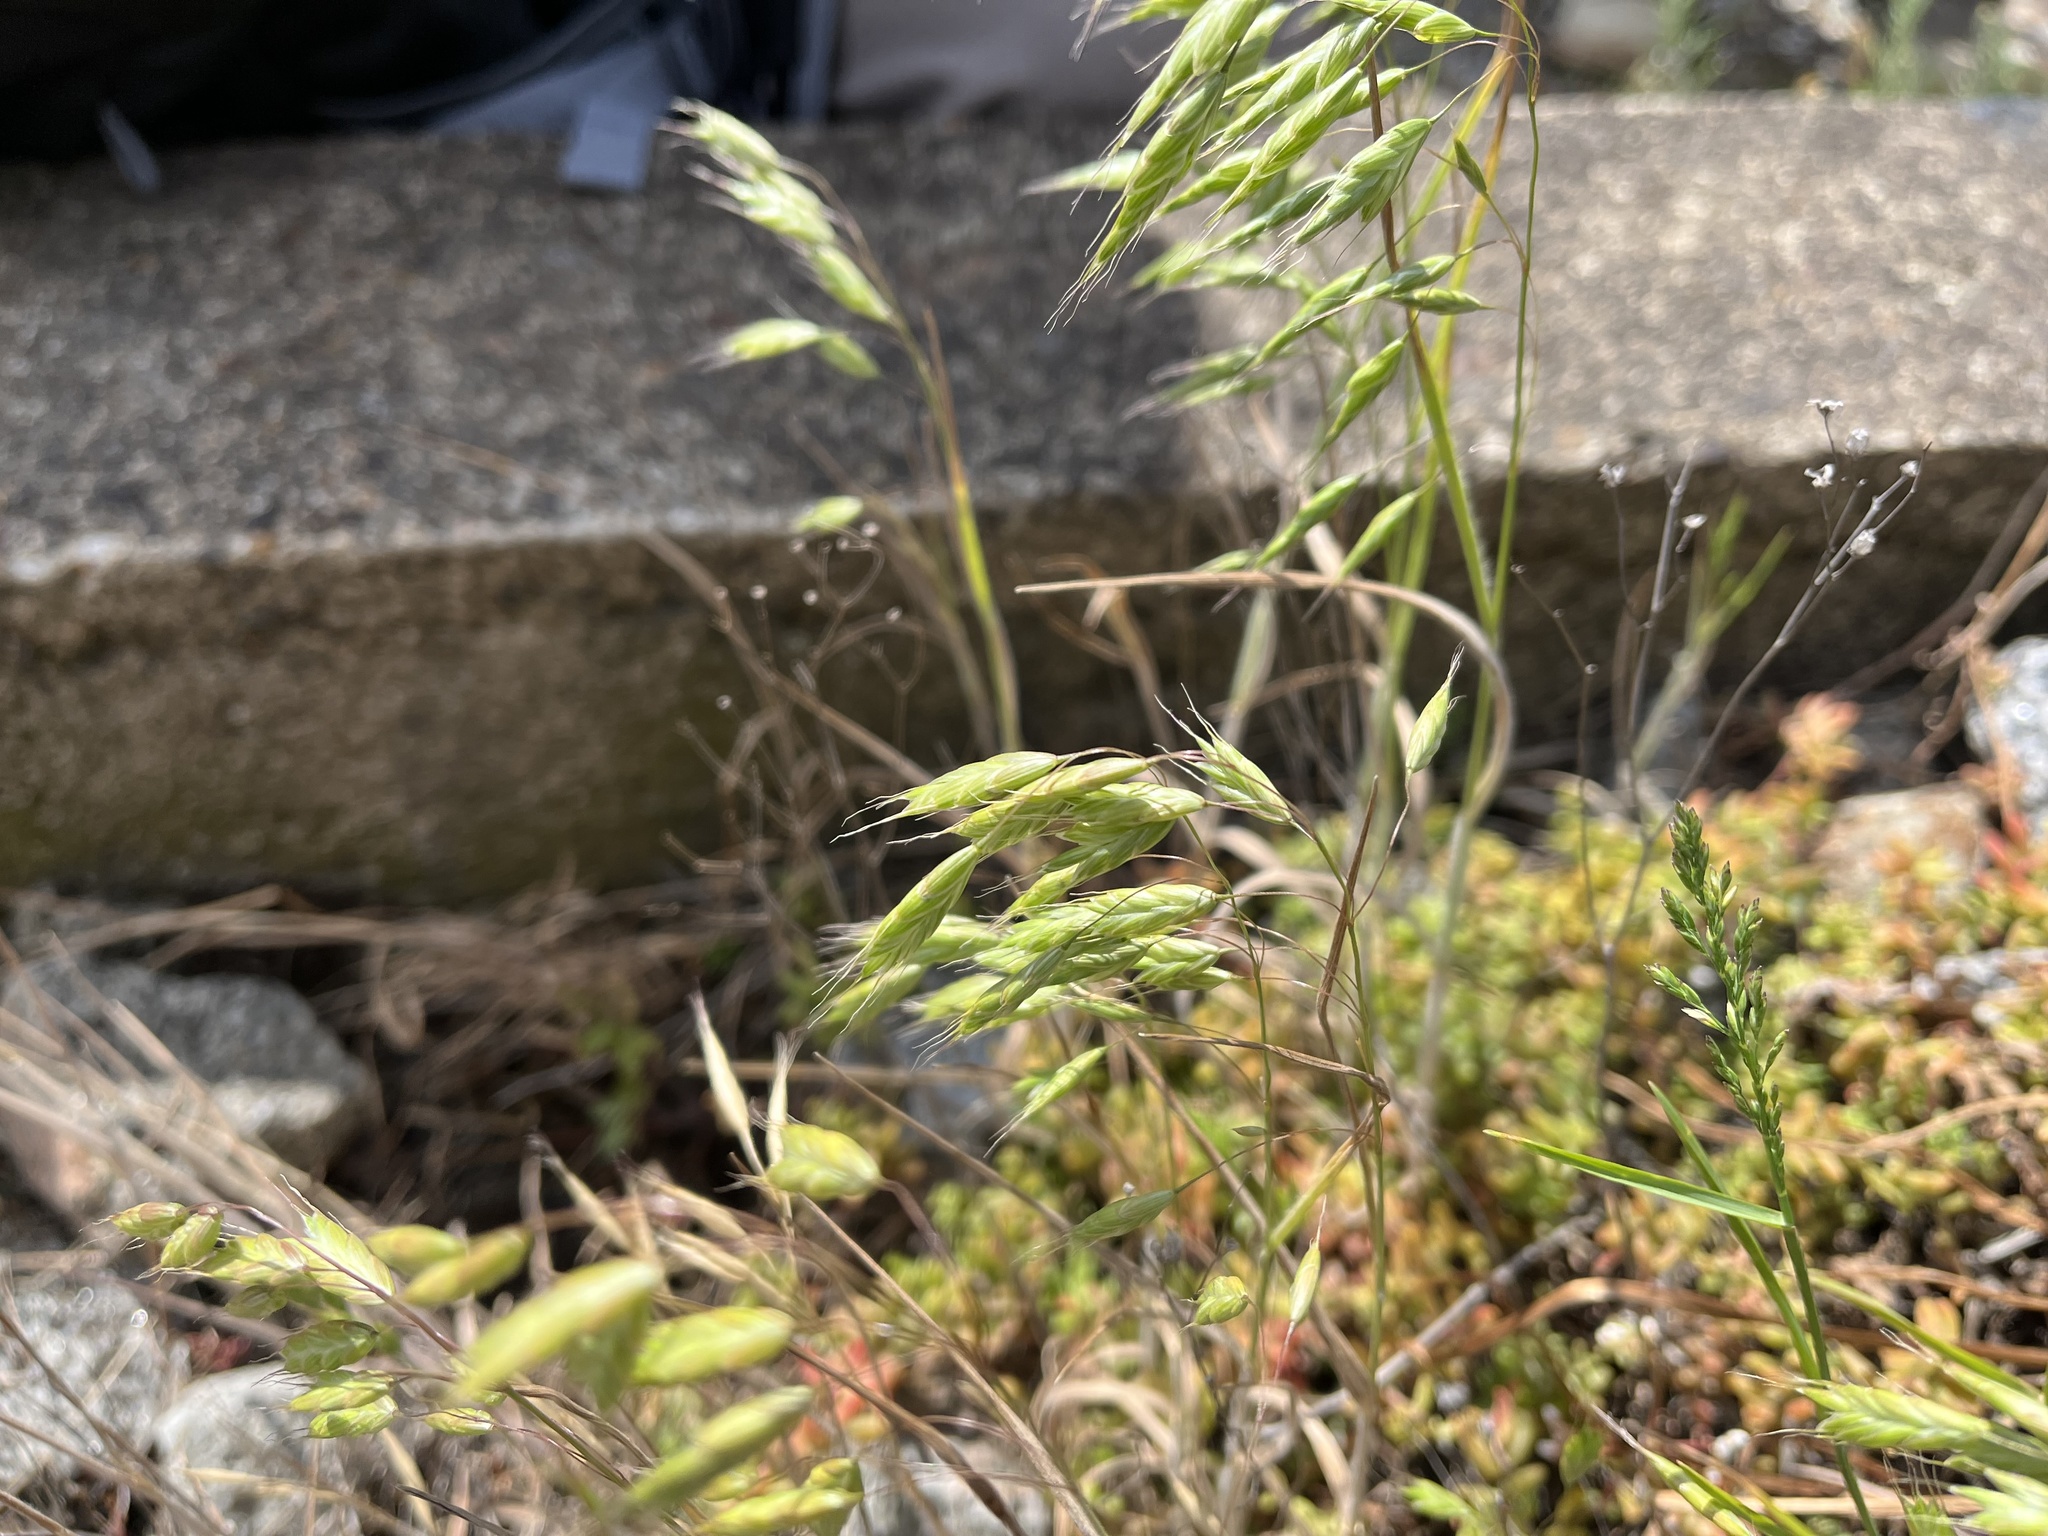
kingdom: Plantae
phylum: Tracheophyta
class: Liliopsida
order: Poales
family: Poaceae
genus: Bromus
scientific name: Bromus squarrosus
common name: Corn brome
